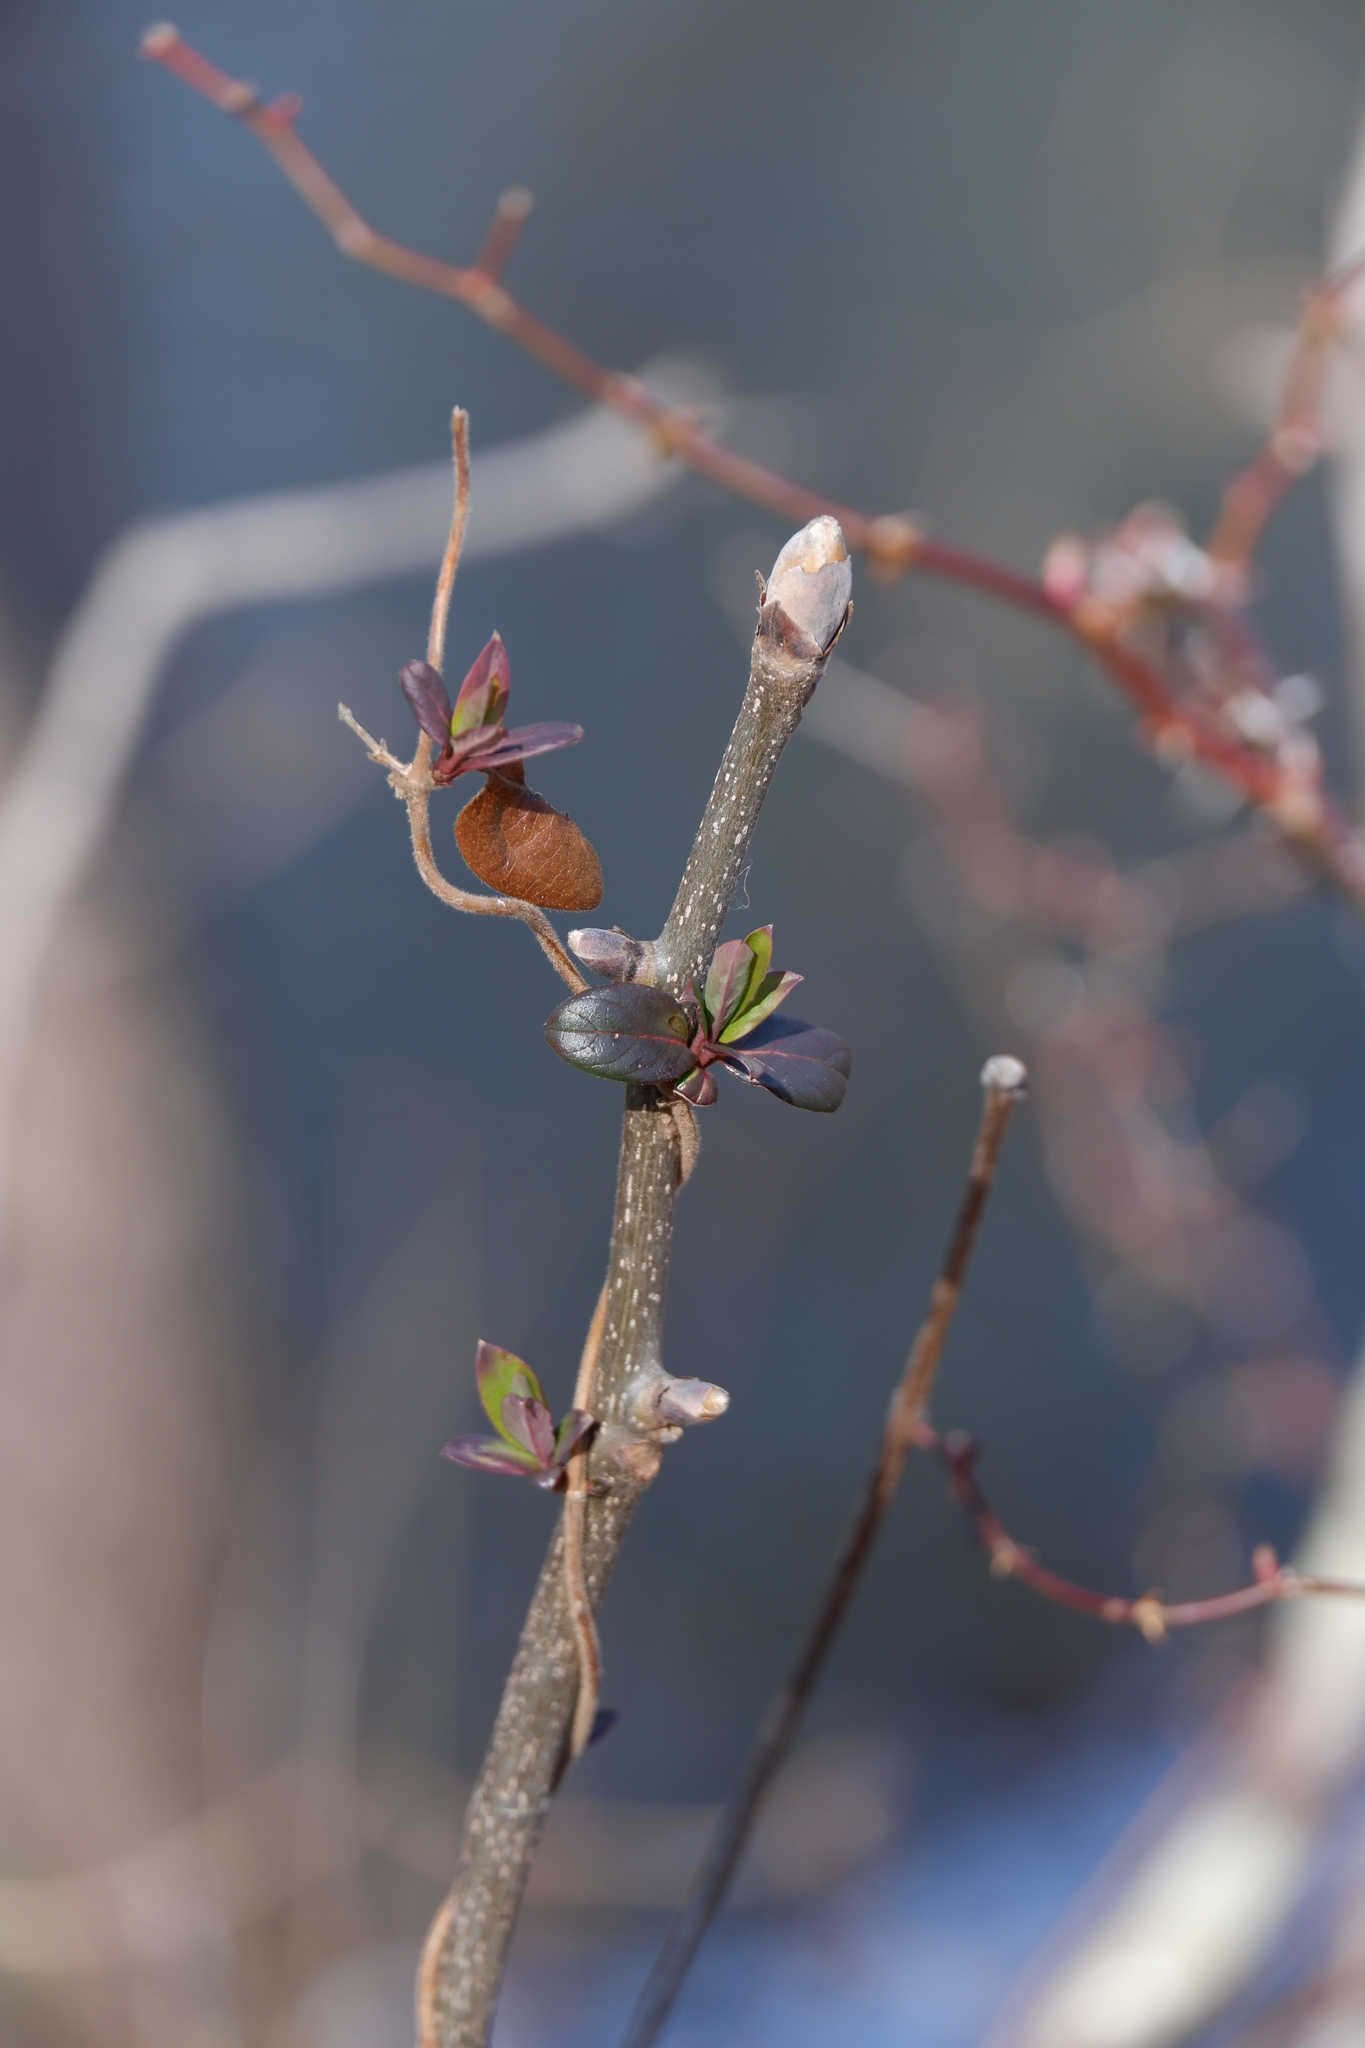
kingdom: Plantae
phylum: Tracheophyta
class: Magnoliopsida
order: Fagales
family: Juglandaceae
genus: Carya
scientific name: Carya ovata
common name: Shagbark hickory
